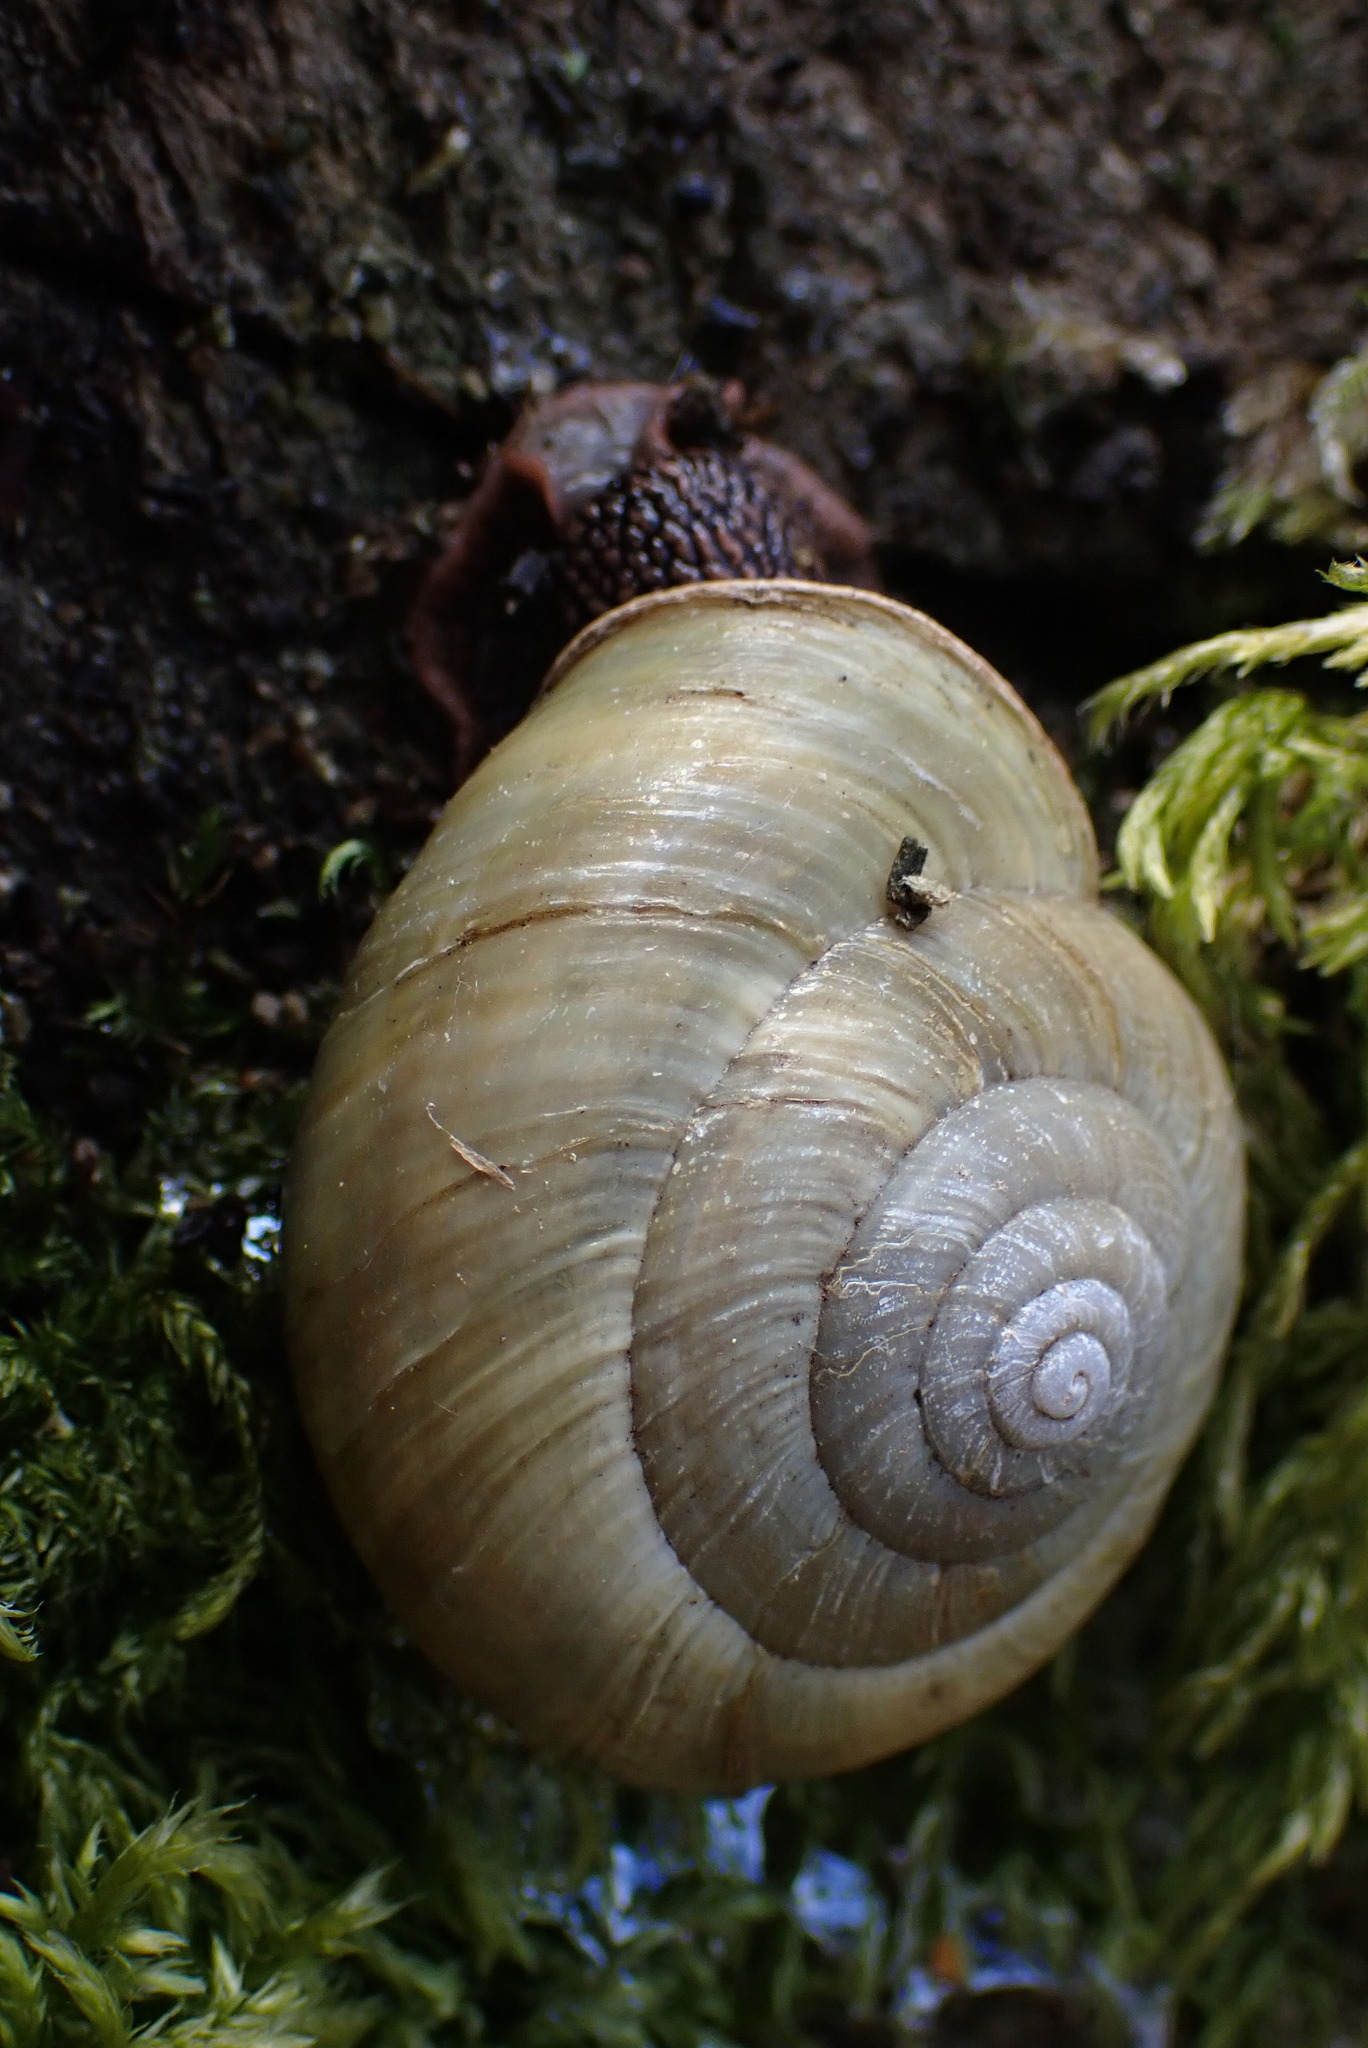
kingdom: Animalia
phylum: Mollusca
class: Gastropoda
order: Stylommatophora
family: Xanthonychidae
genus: Monadenia
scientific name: Monadenia fidelis
